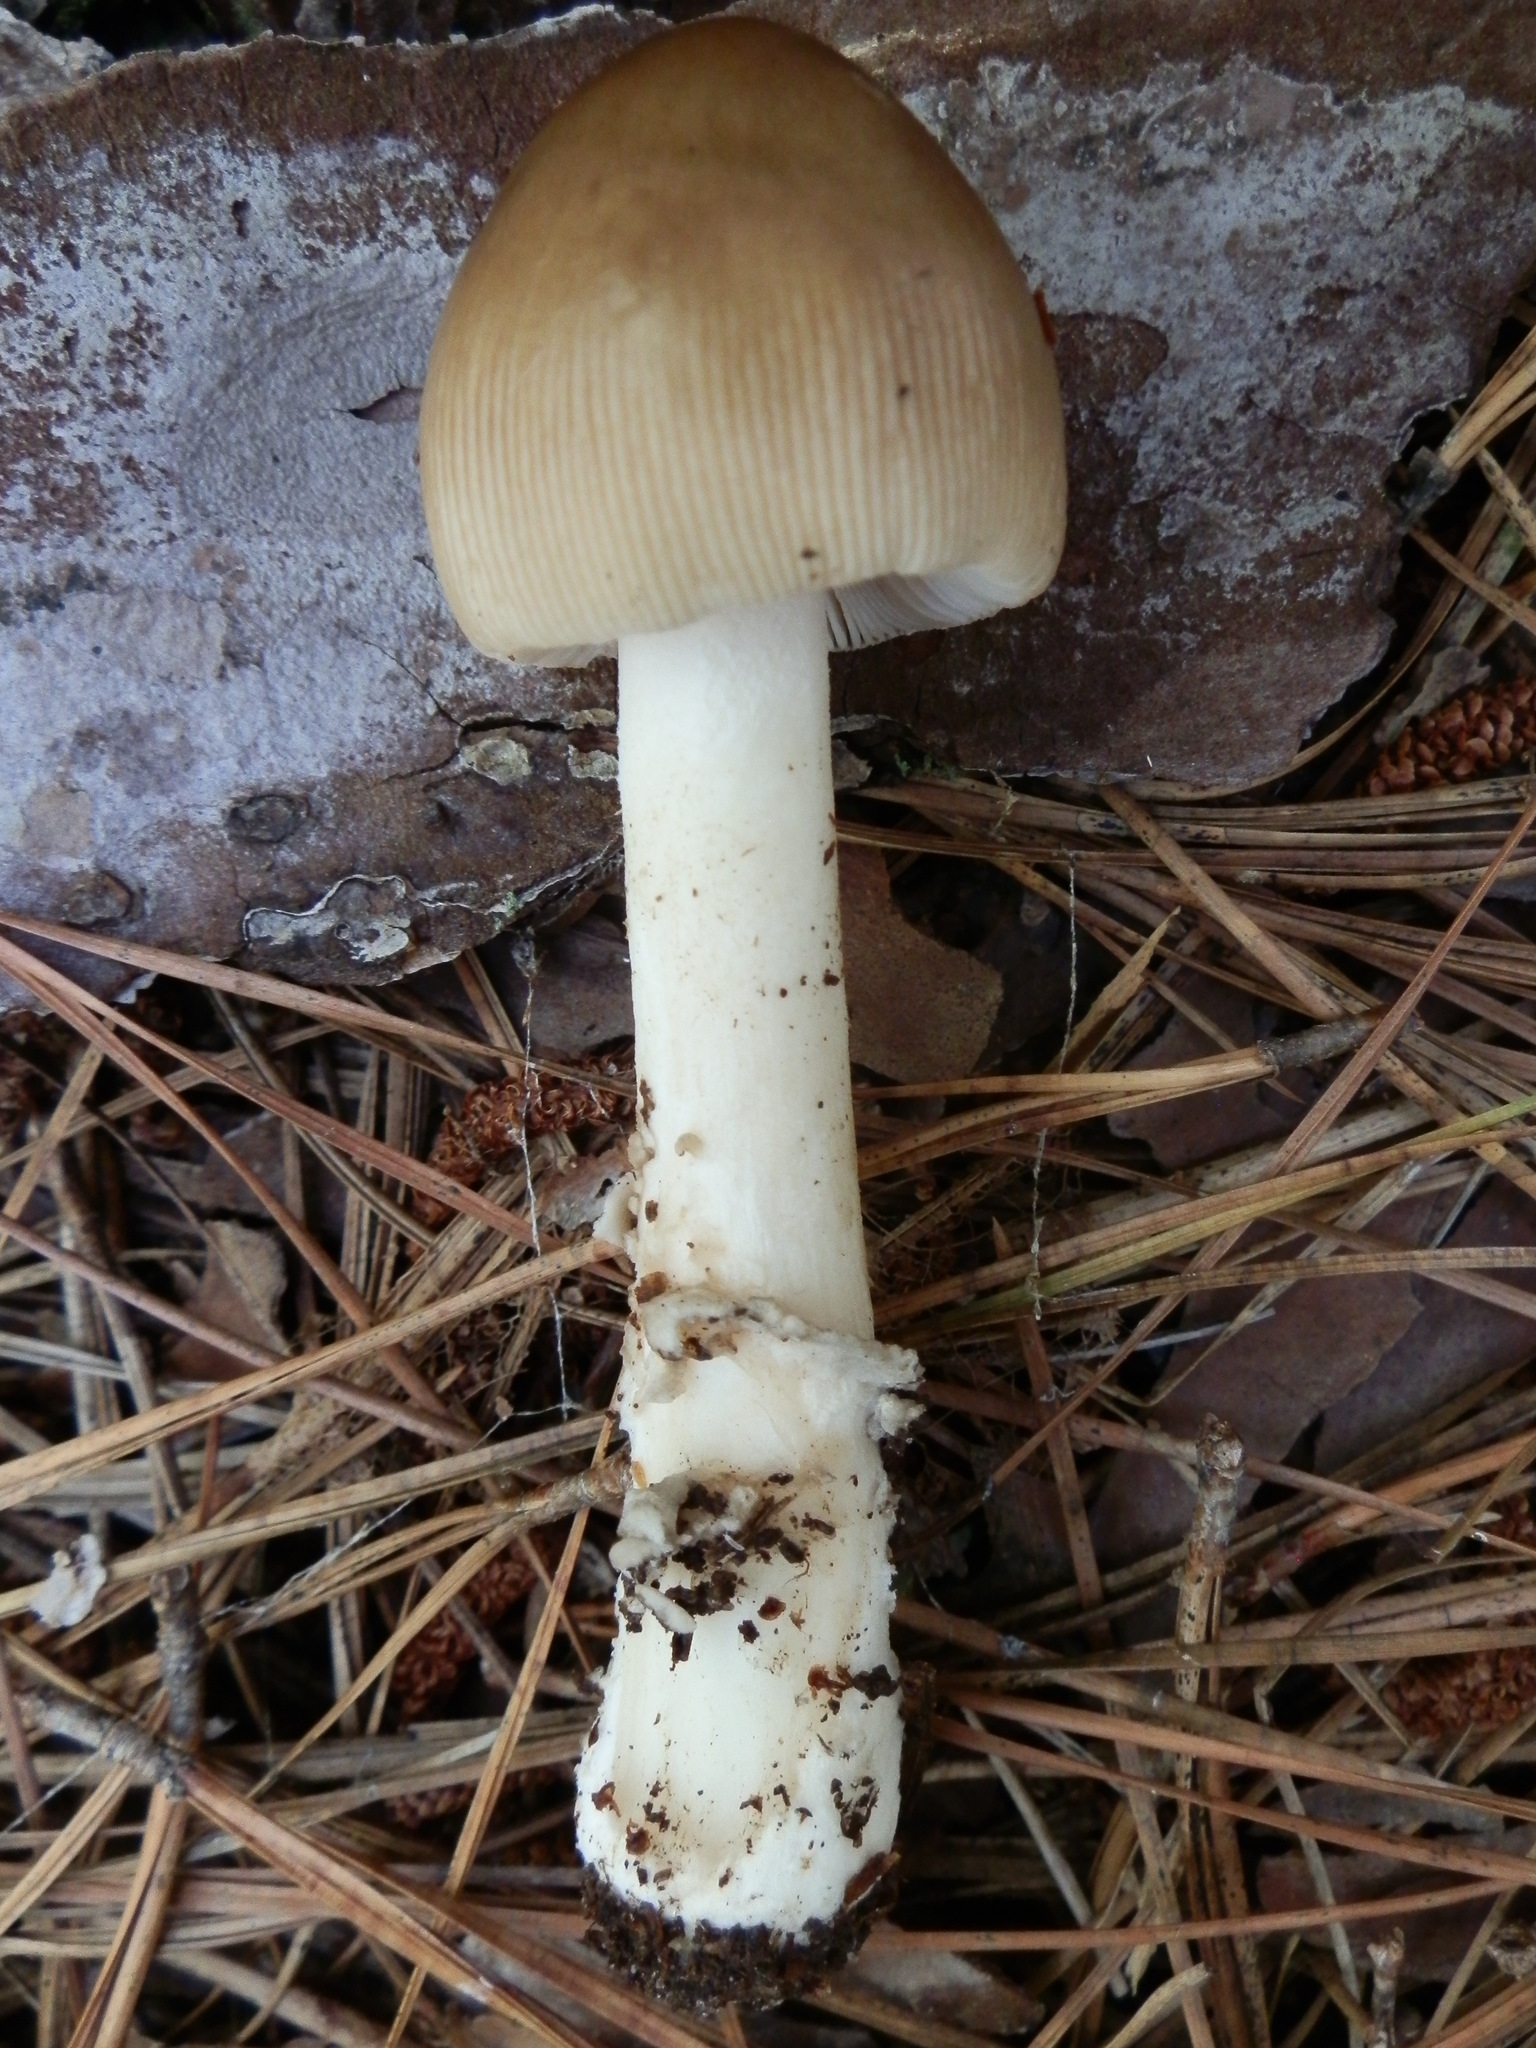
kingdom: Fungi
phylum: Basidiomycota
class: Agaricomycetes
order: Agaricales
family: Amanitaceae
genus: Amanita
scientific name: Amanita sinicoflava
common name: Mandarin yellow ringless amanita
